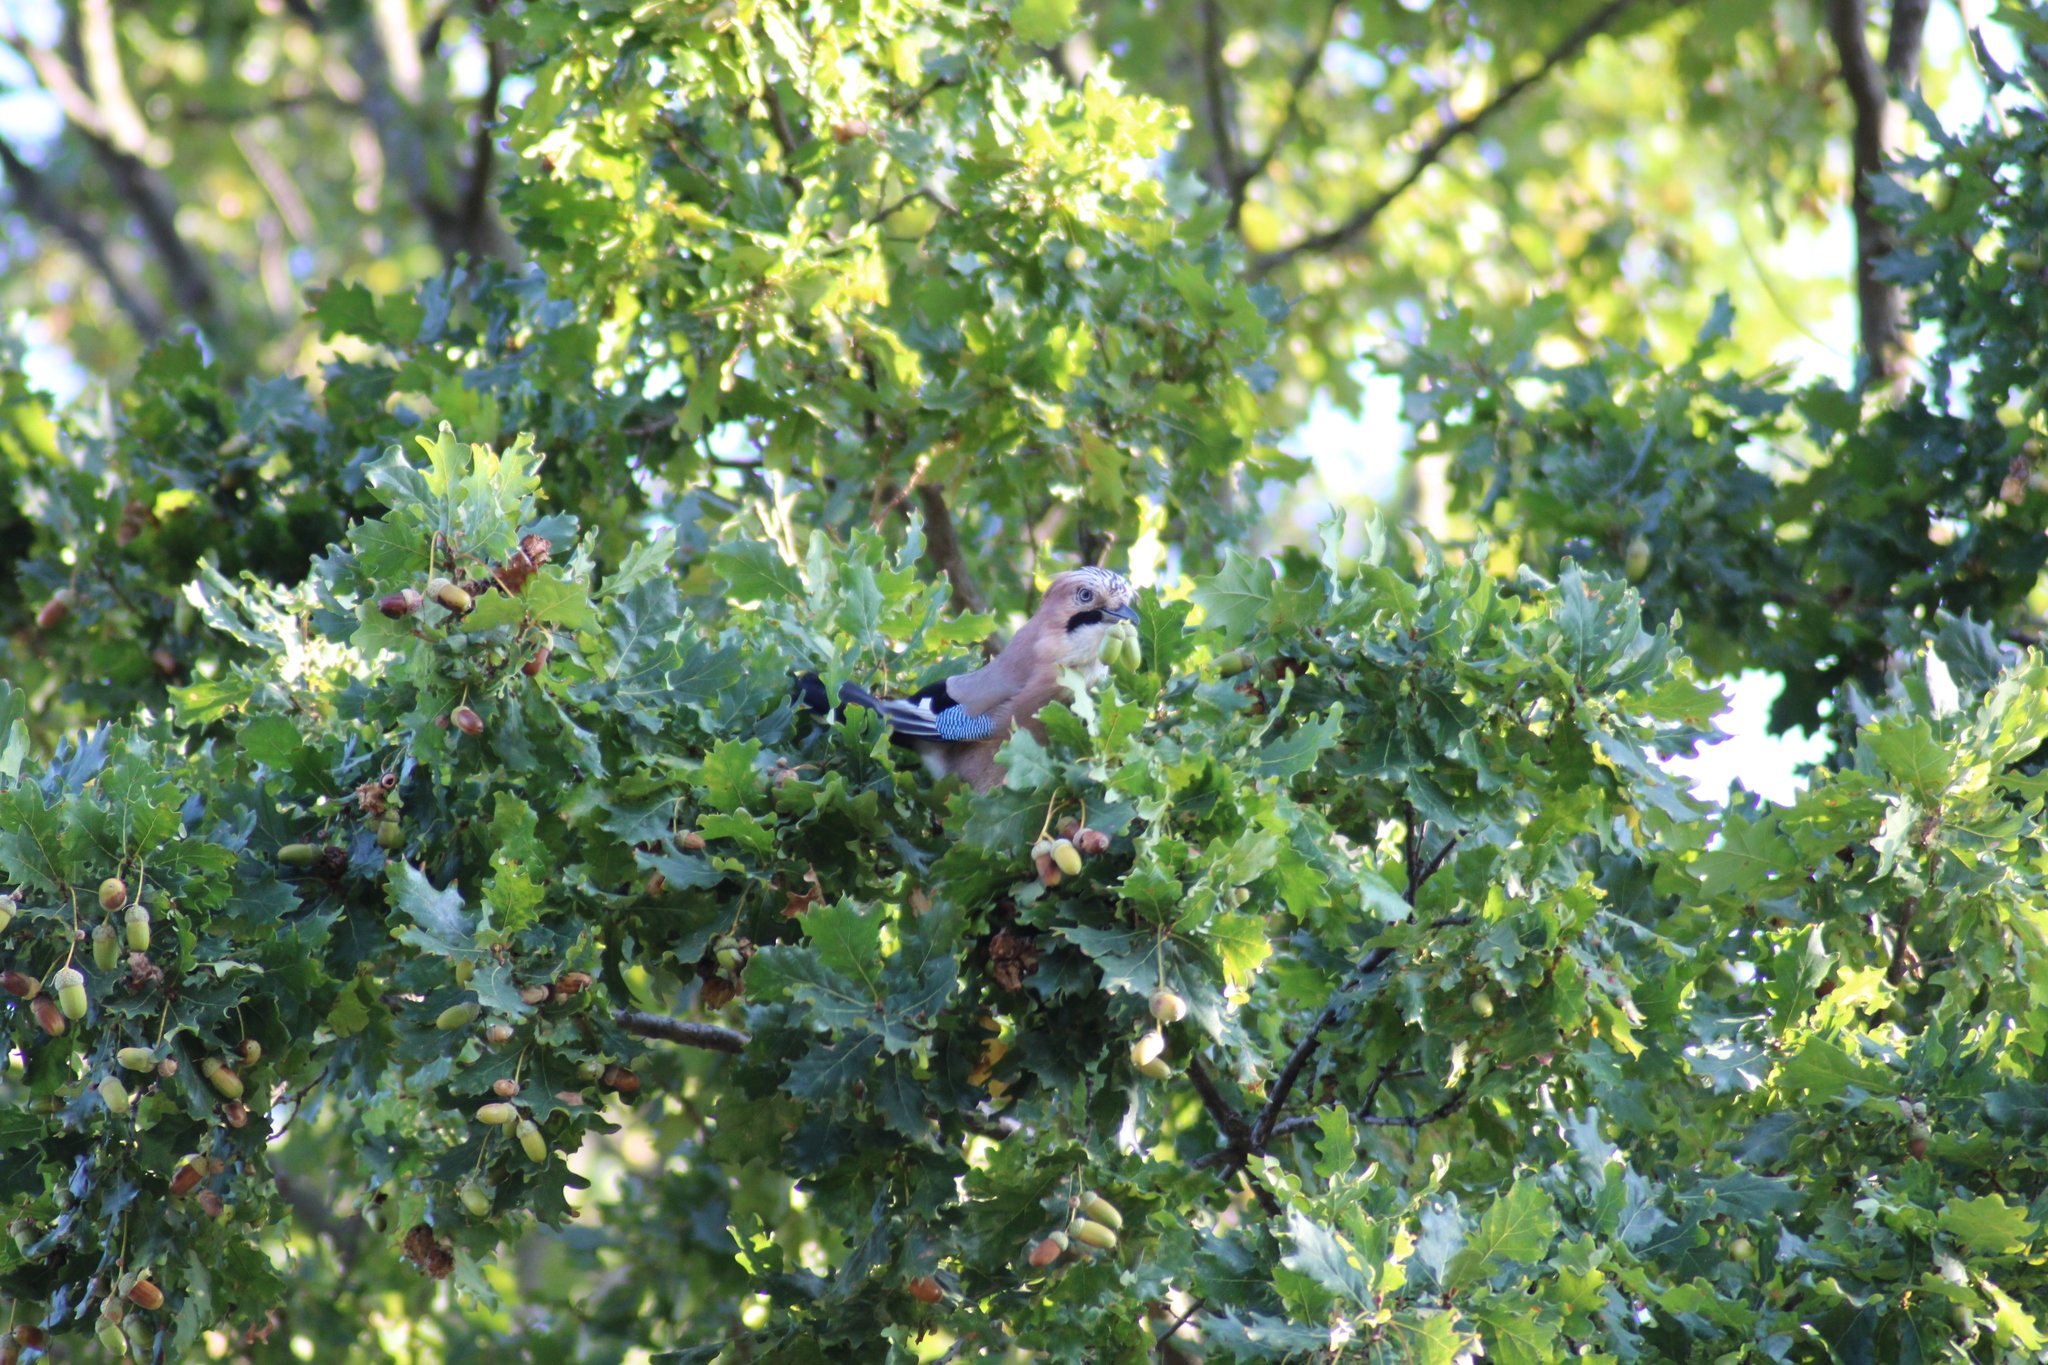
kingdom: Animalia
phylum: Chordata
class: Aves
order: Passeriformes
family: Corvidae
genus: Garrulus
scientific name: Garrulus glandarius
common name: Eurasian jay
